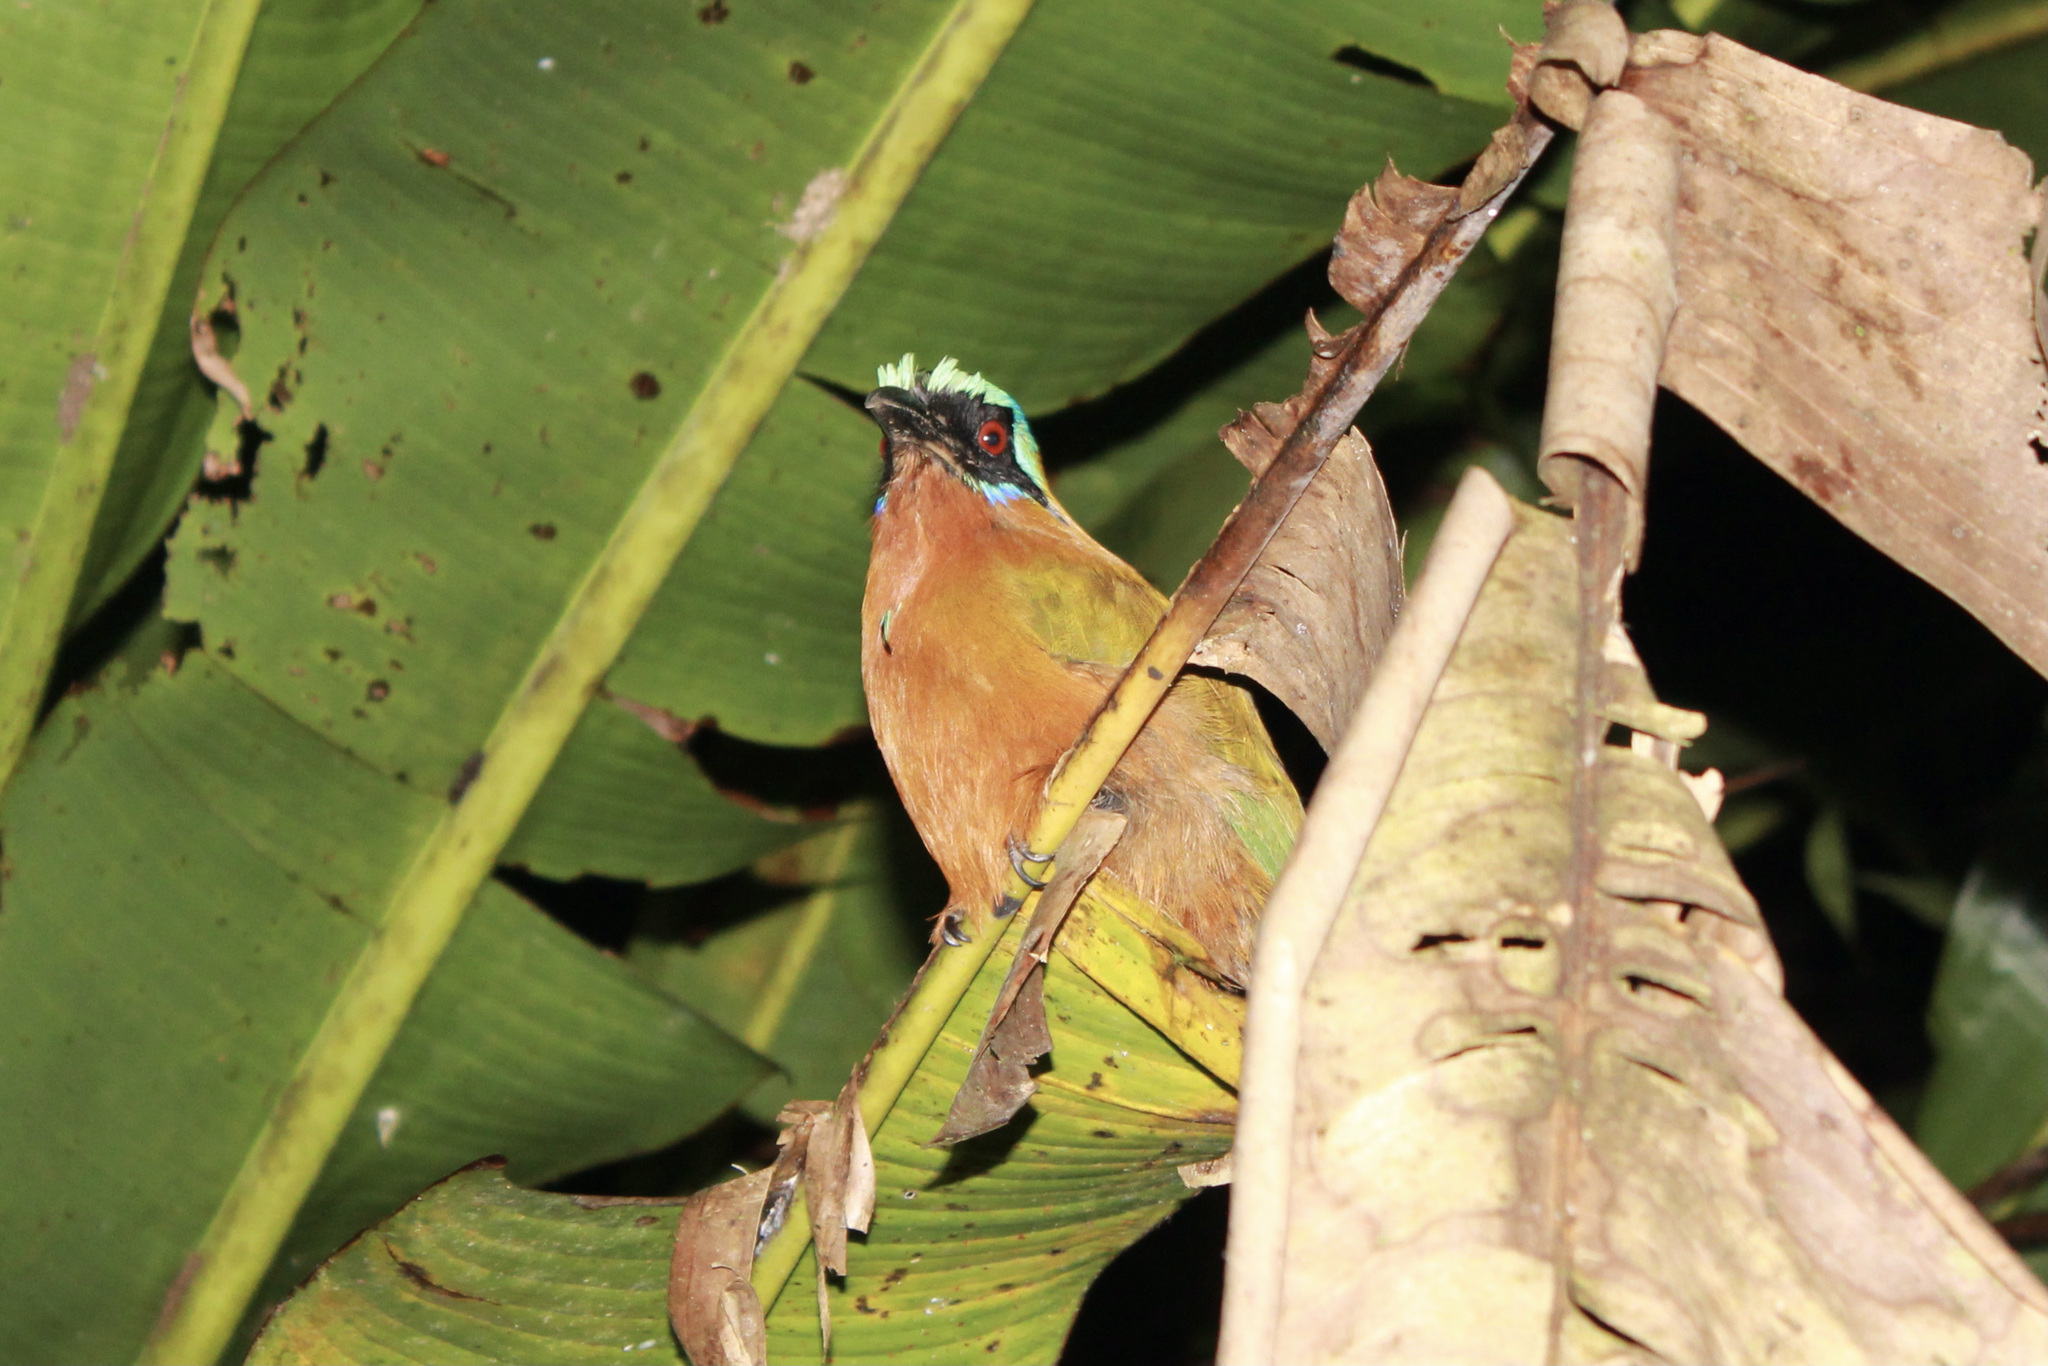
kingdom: Animalia
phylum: Chordata
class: Aves
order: Coraciiformes
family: Momotidae
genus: Momotus
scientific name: Momotus bahamensis
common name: Trinidad motmot
